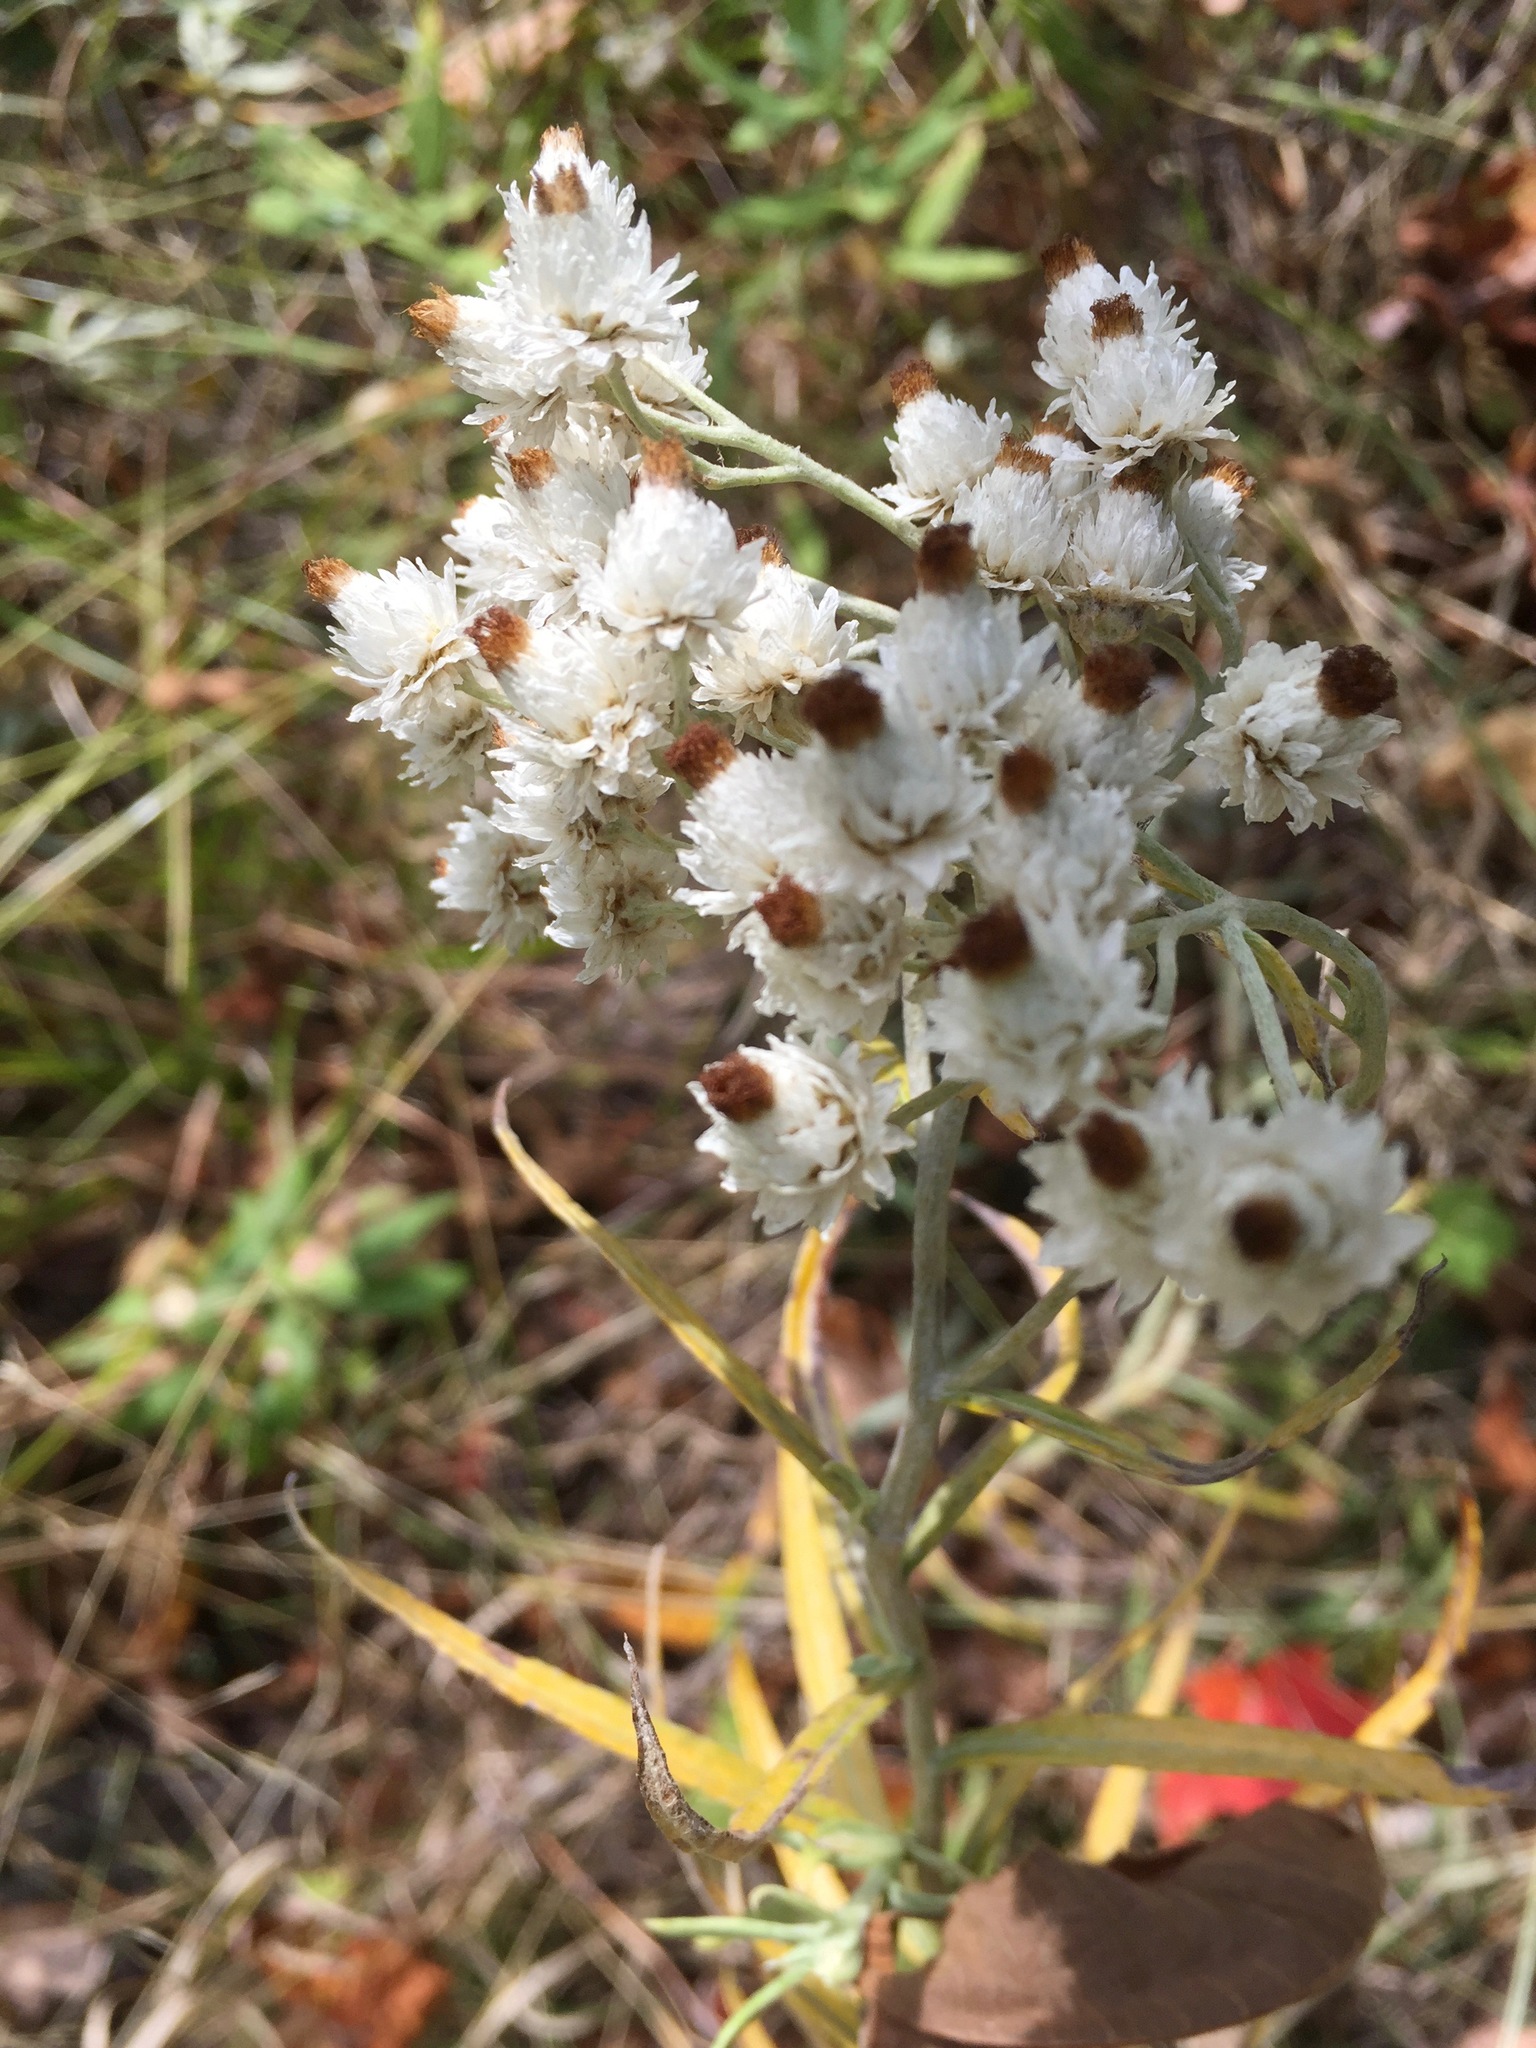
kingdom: Plantae
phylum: Tracheophyta
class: Magnoliopsida
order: Asterales
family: Asteraceae
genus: Anaphalis
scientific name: Anaphalis margaritacea
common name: Pearly everlasting
